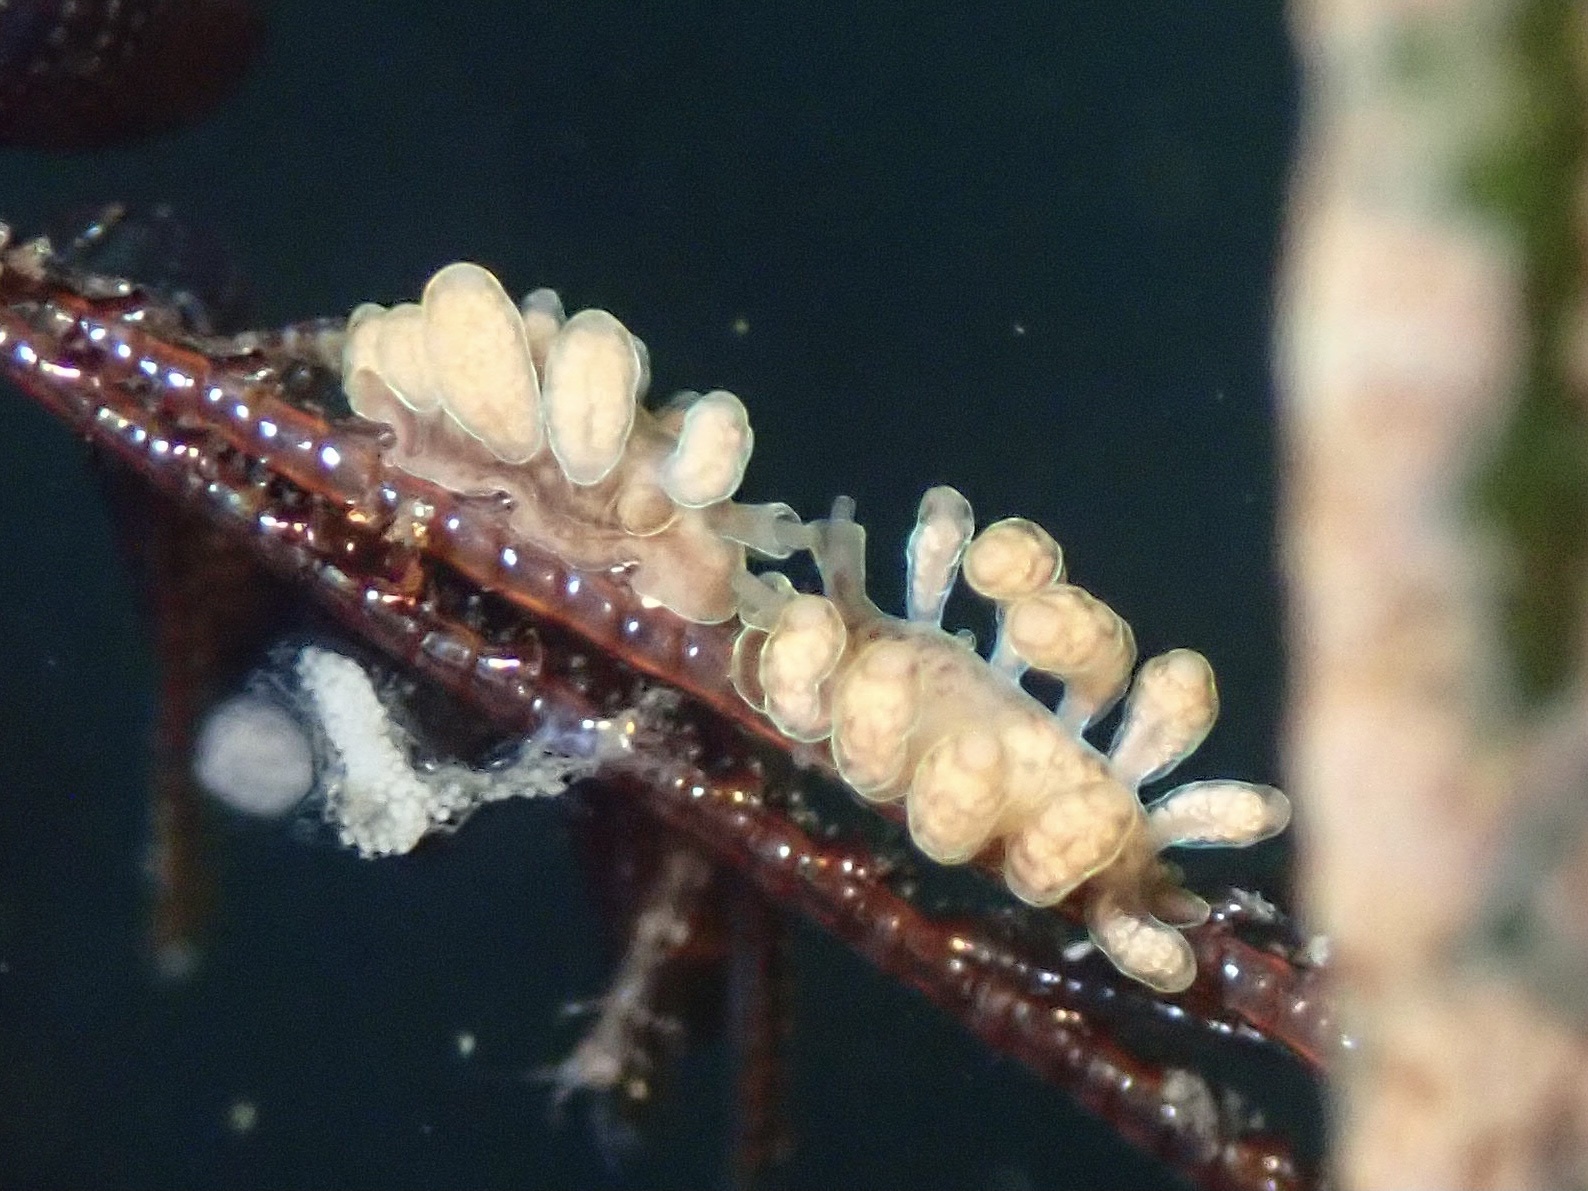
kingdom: Animalia
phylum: Mollusca
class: Gastropoda
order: Nudibranchia
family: Dotidae
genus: Doto
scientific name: Doto columbiana
